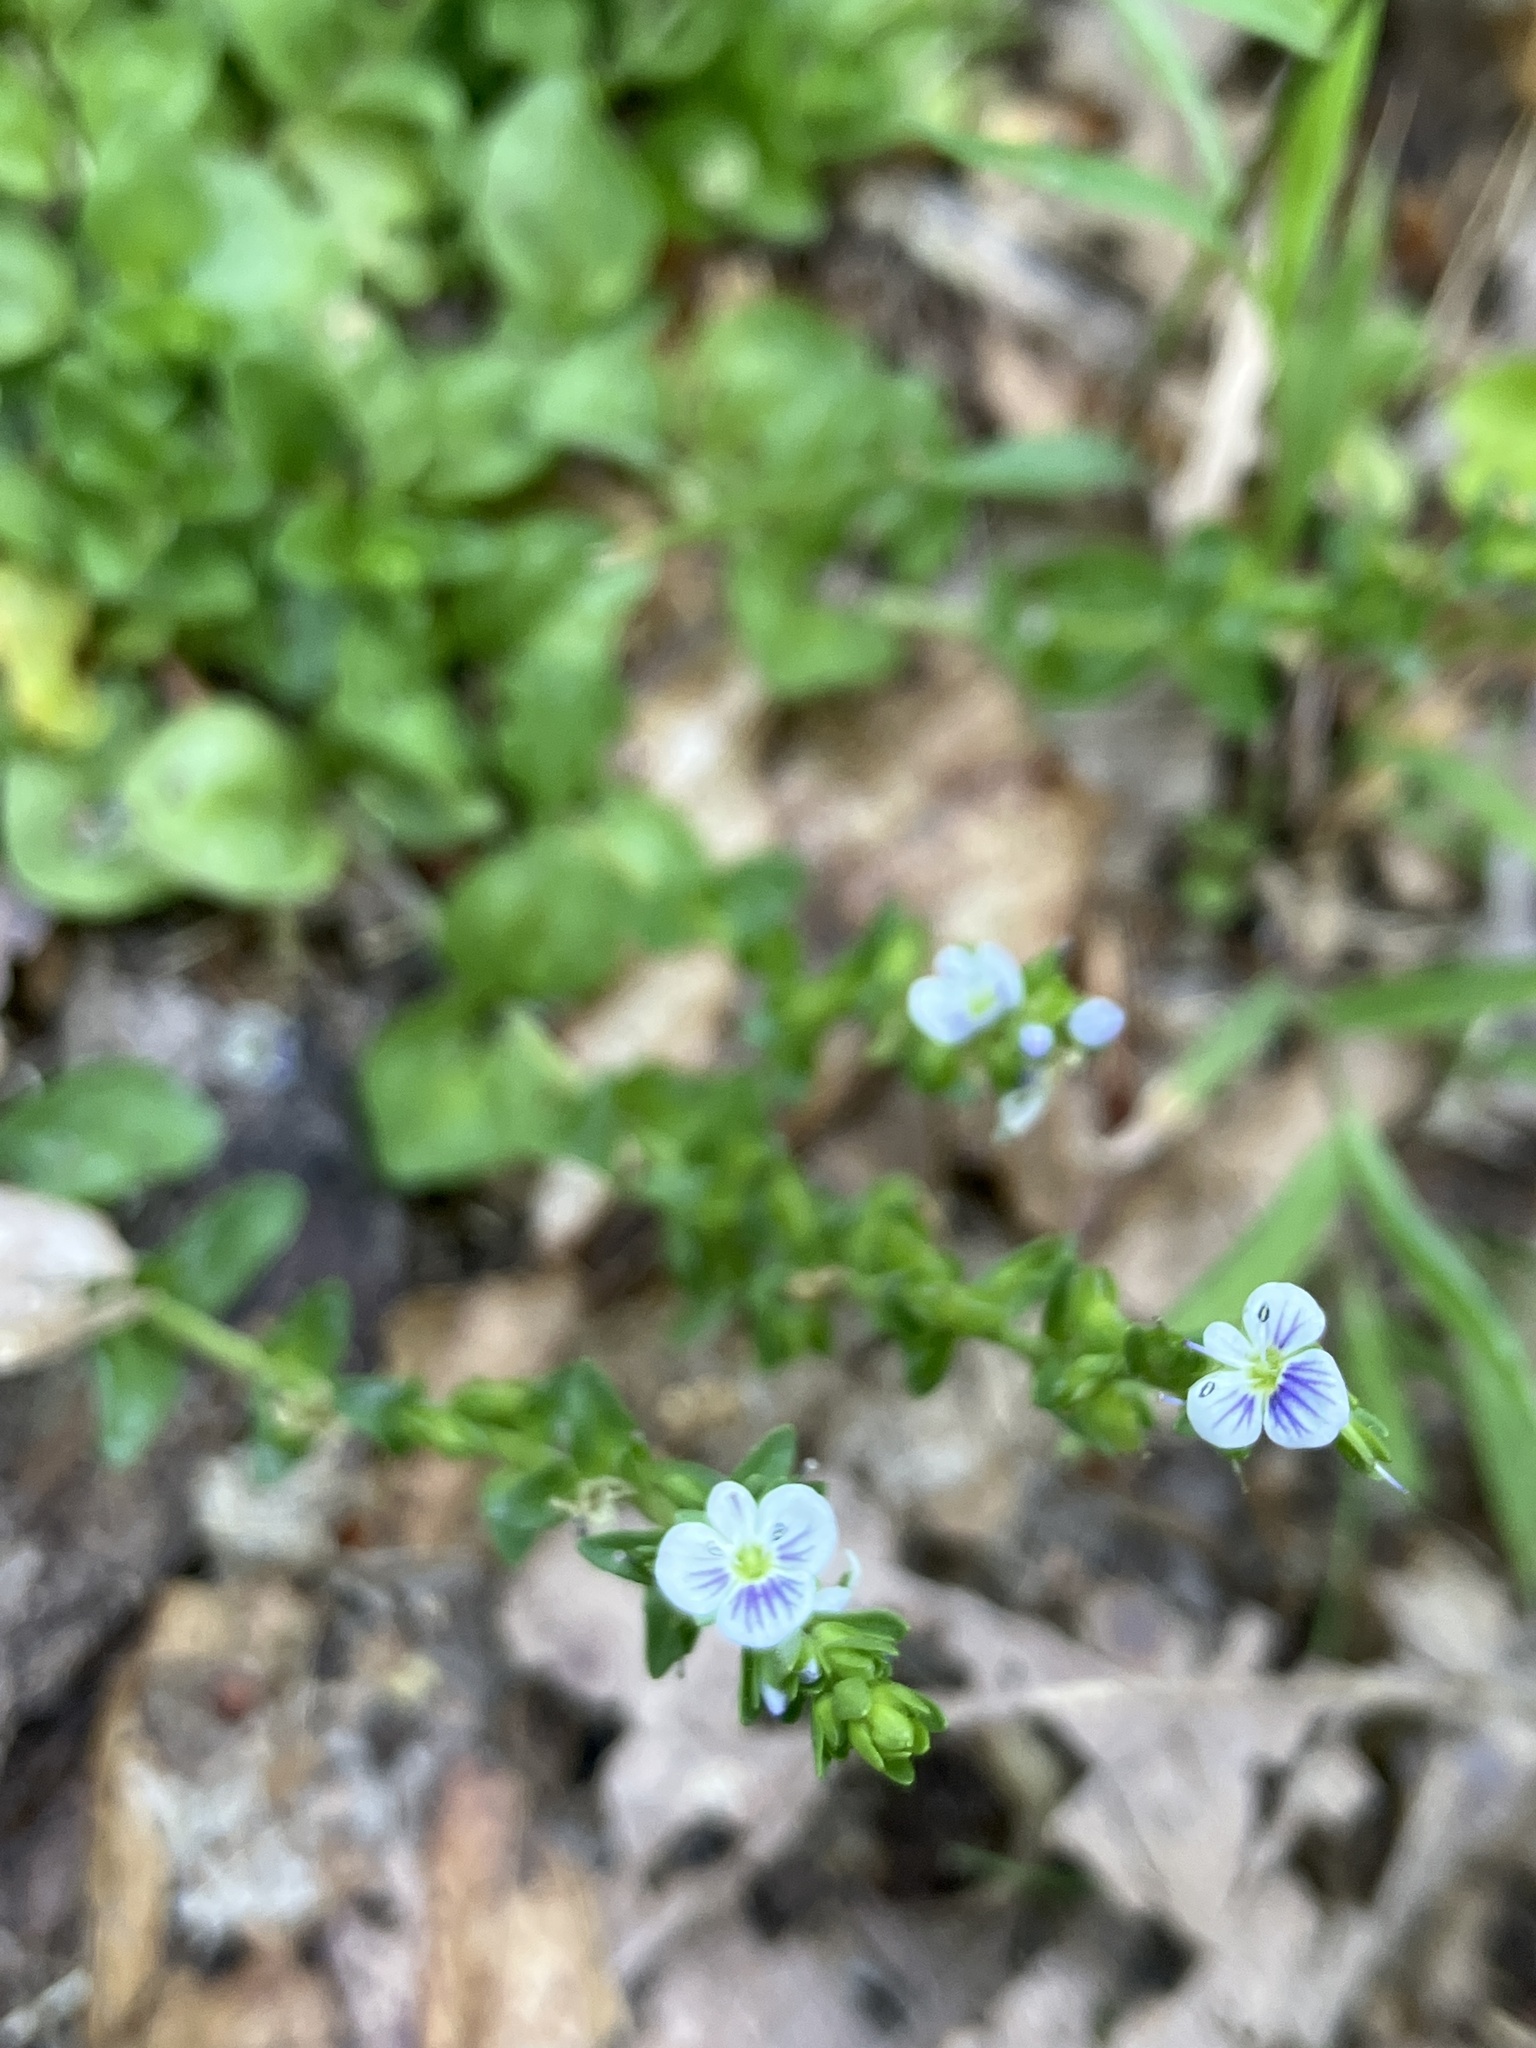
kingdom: Plantae
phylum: Tracheophyta
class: Magnoliopsida
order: Lamiales
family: Plantaginaceae
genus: Veronica
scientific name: Veronica serpyllifolia
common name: Thyme-leaved speedwell
